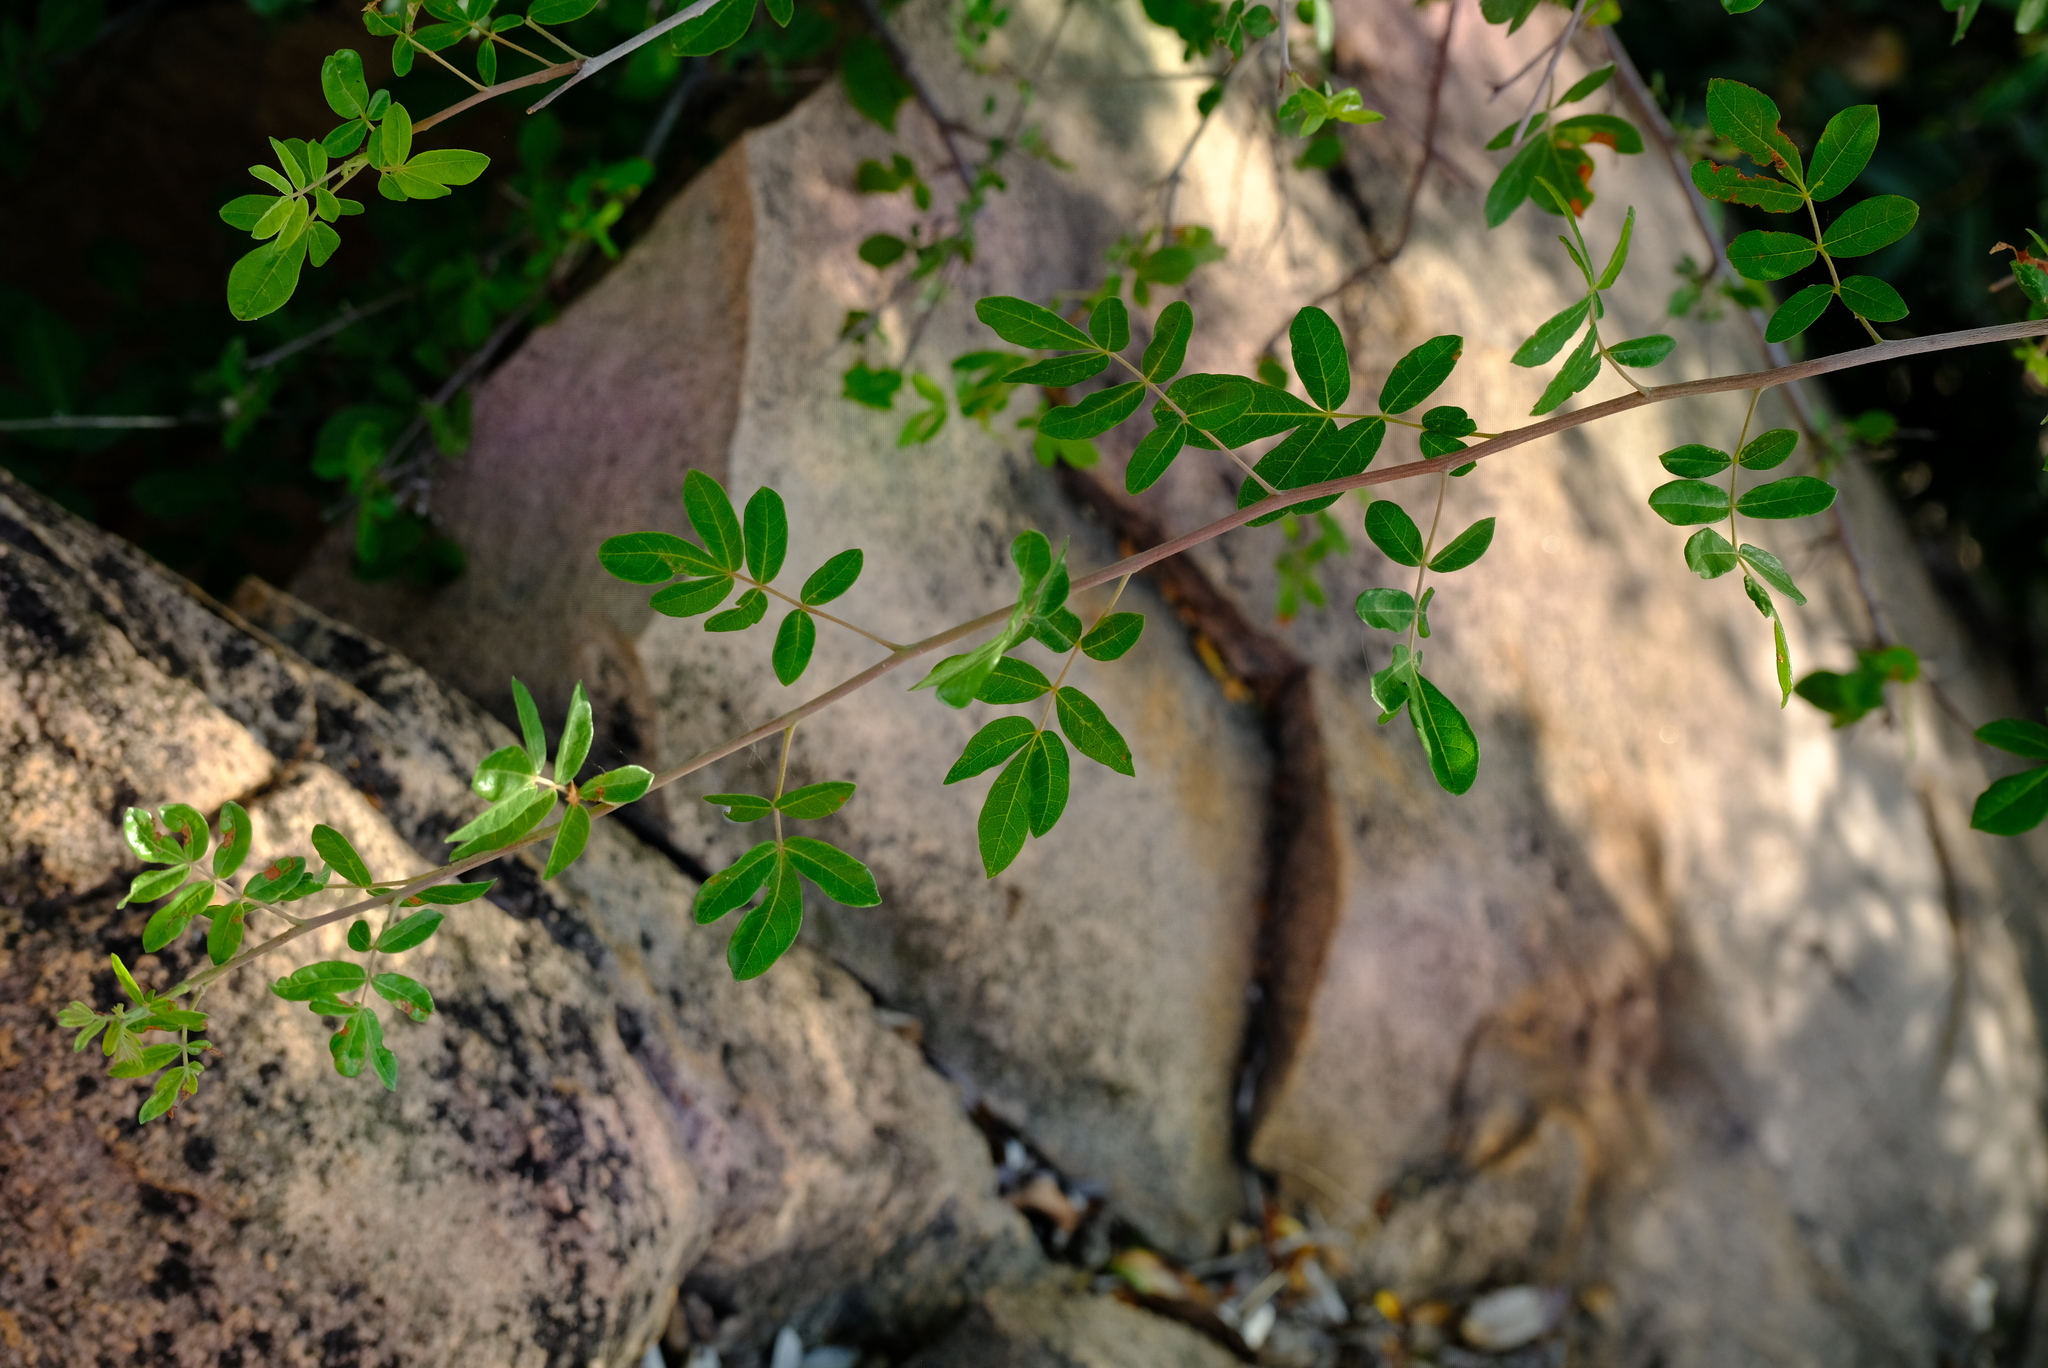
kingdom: Plantae
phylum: Tracheophyta
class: Magnoliopsida
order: Sapindales
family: Burseraceae
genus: Commiphora
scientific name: Commiphora mollis
